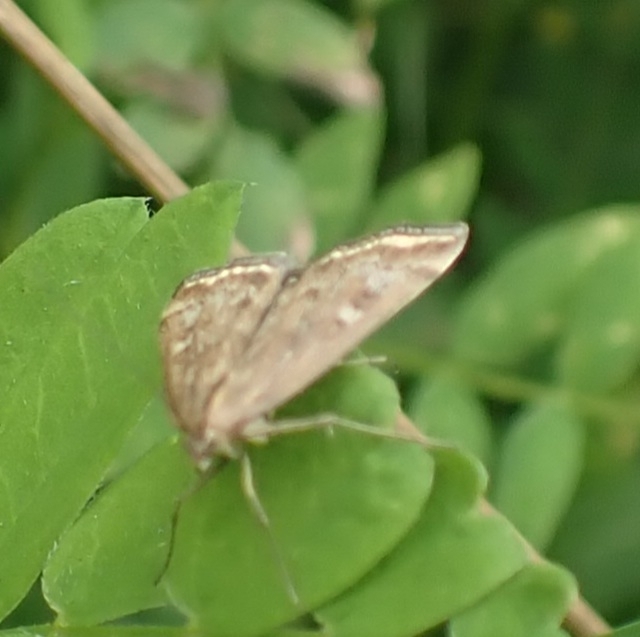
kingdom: Animalia
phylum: Arthropoda
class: Insecta
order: Lepidoptera
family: Crambidae
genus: Loxostege
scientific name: Loxostege sticticalis
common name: Crambid moth
